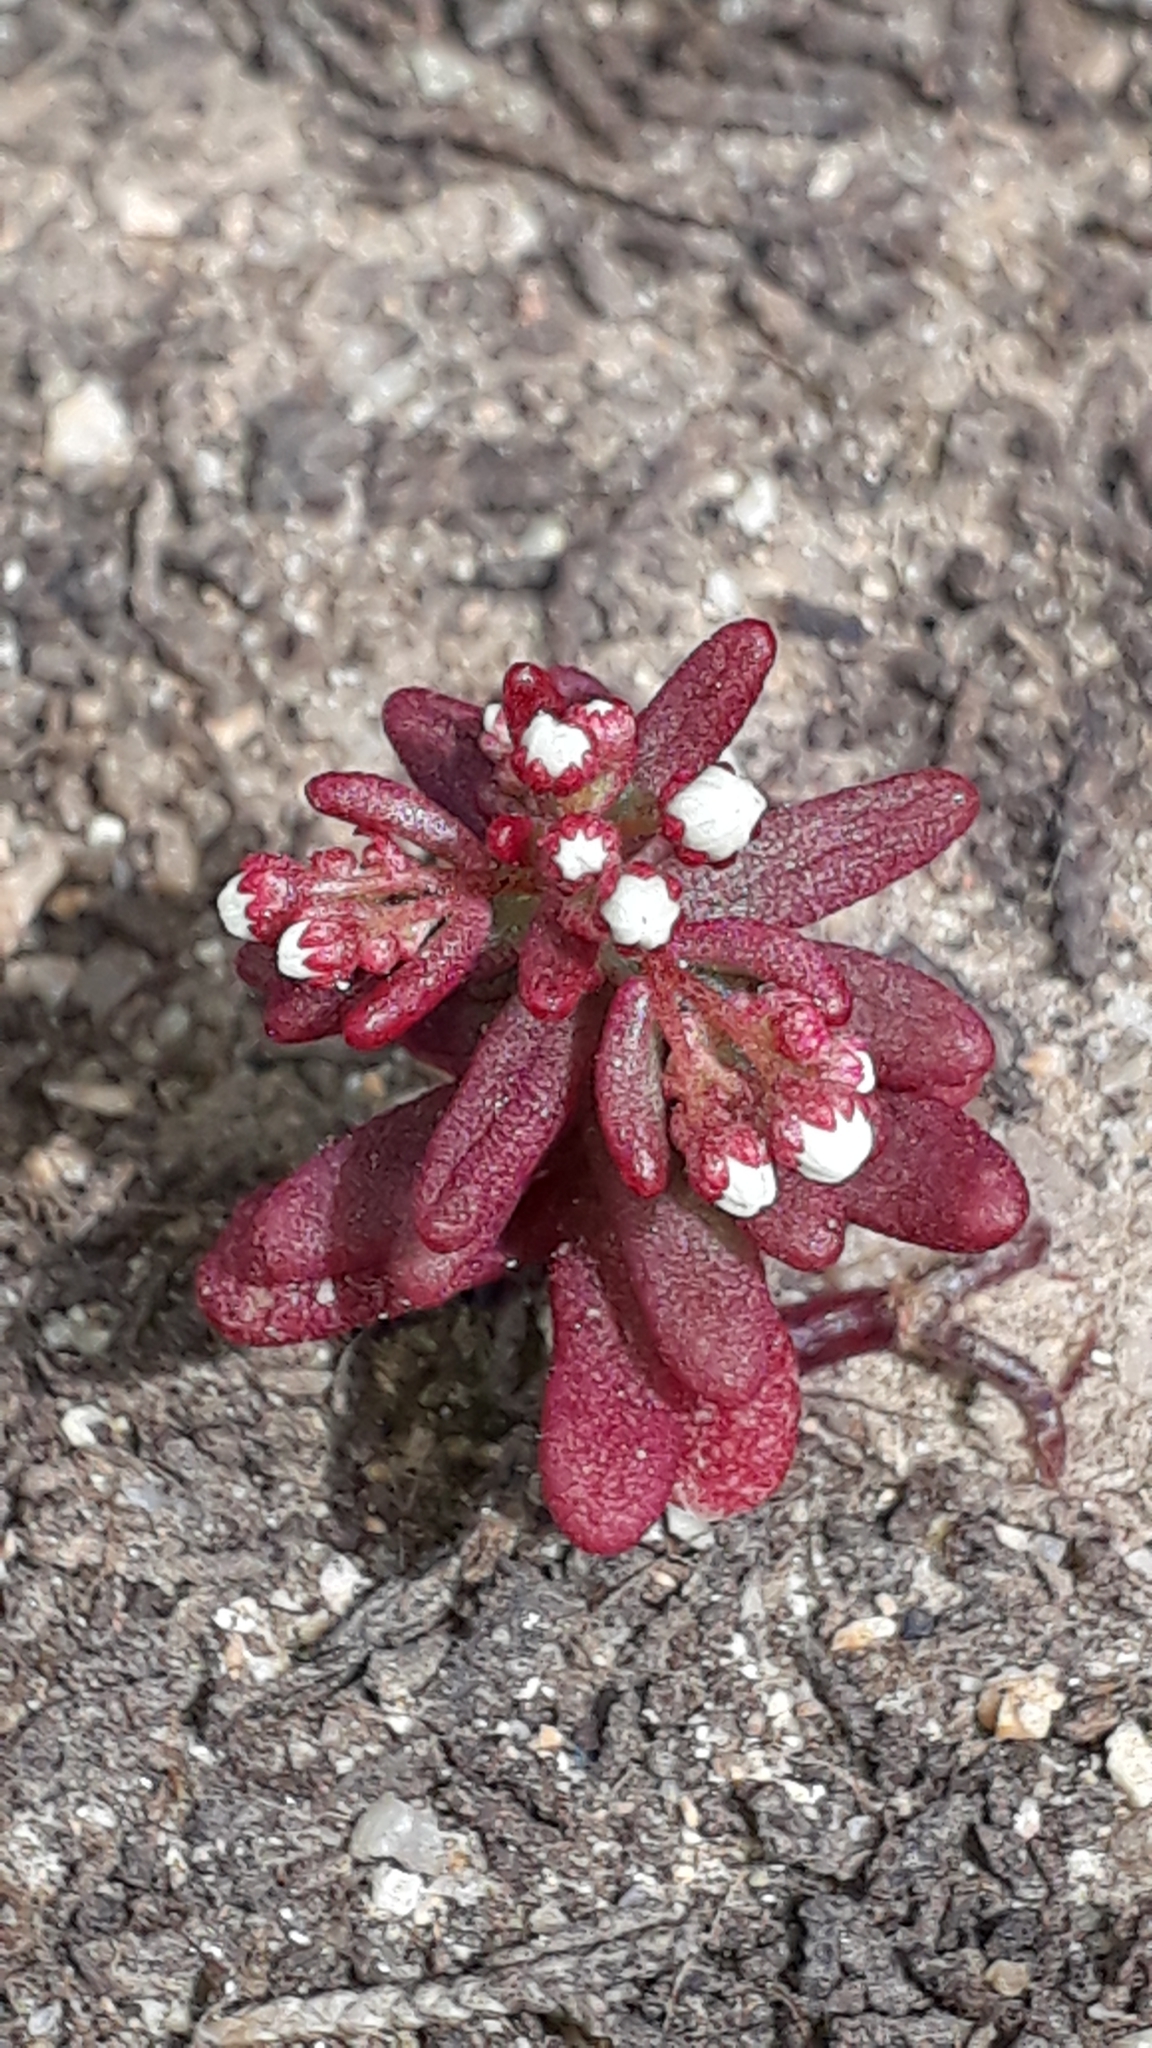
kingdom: Plantae
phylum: Tracheophyta
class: Magnoliopsida
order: Saxifragales
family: Crassulaceae
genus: Sedum
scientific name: Sedum caeruleum
